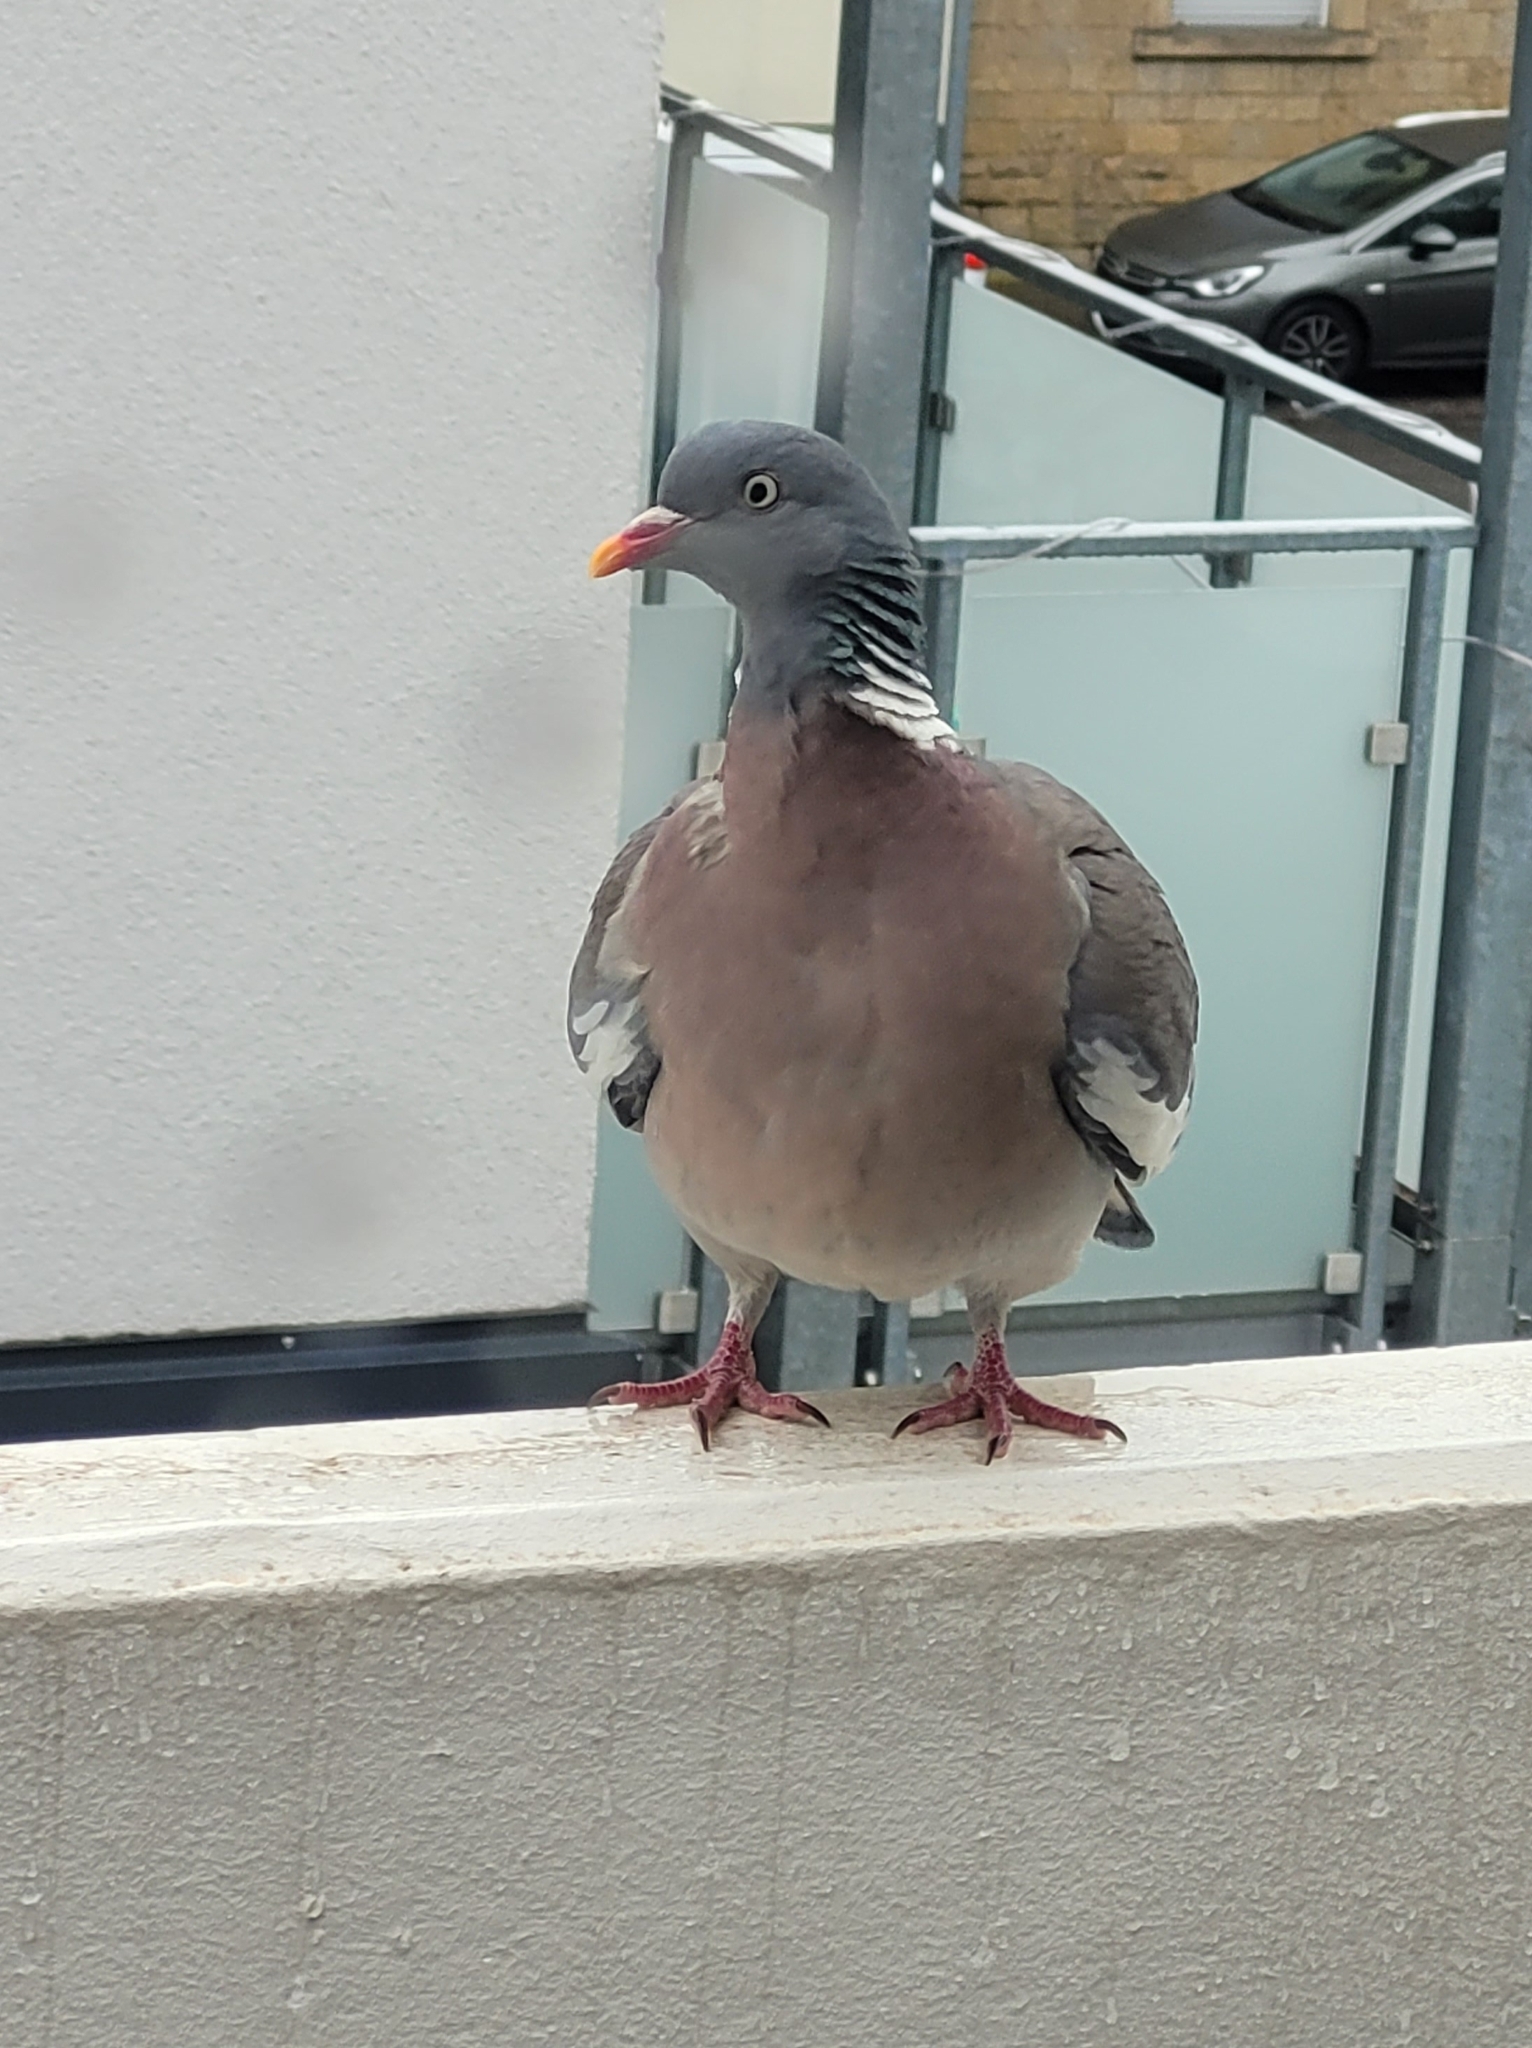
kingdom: Animalia
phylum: Chordata
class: Aves
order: Columbiformes
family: Columbidae
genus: Columba
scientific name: Columba palumbus
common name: Common wood pigeon
